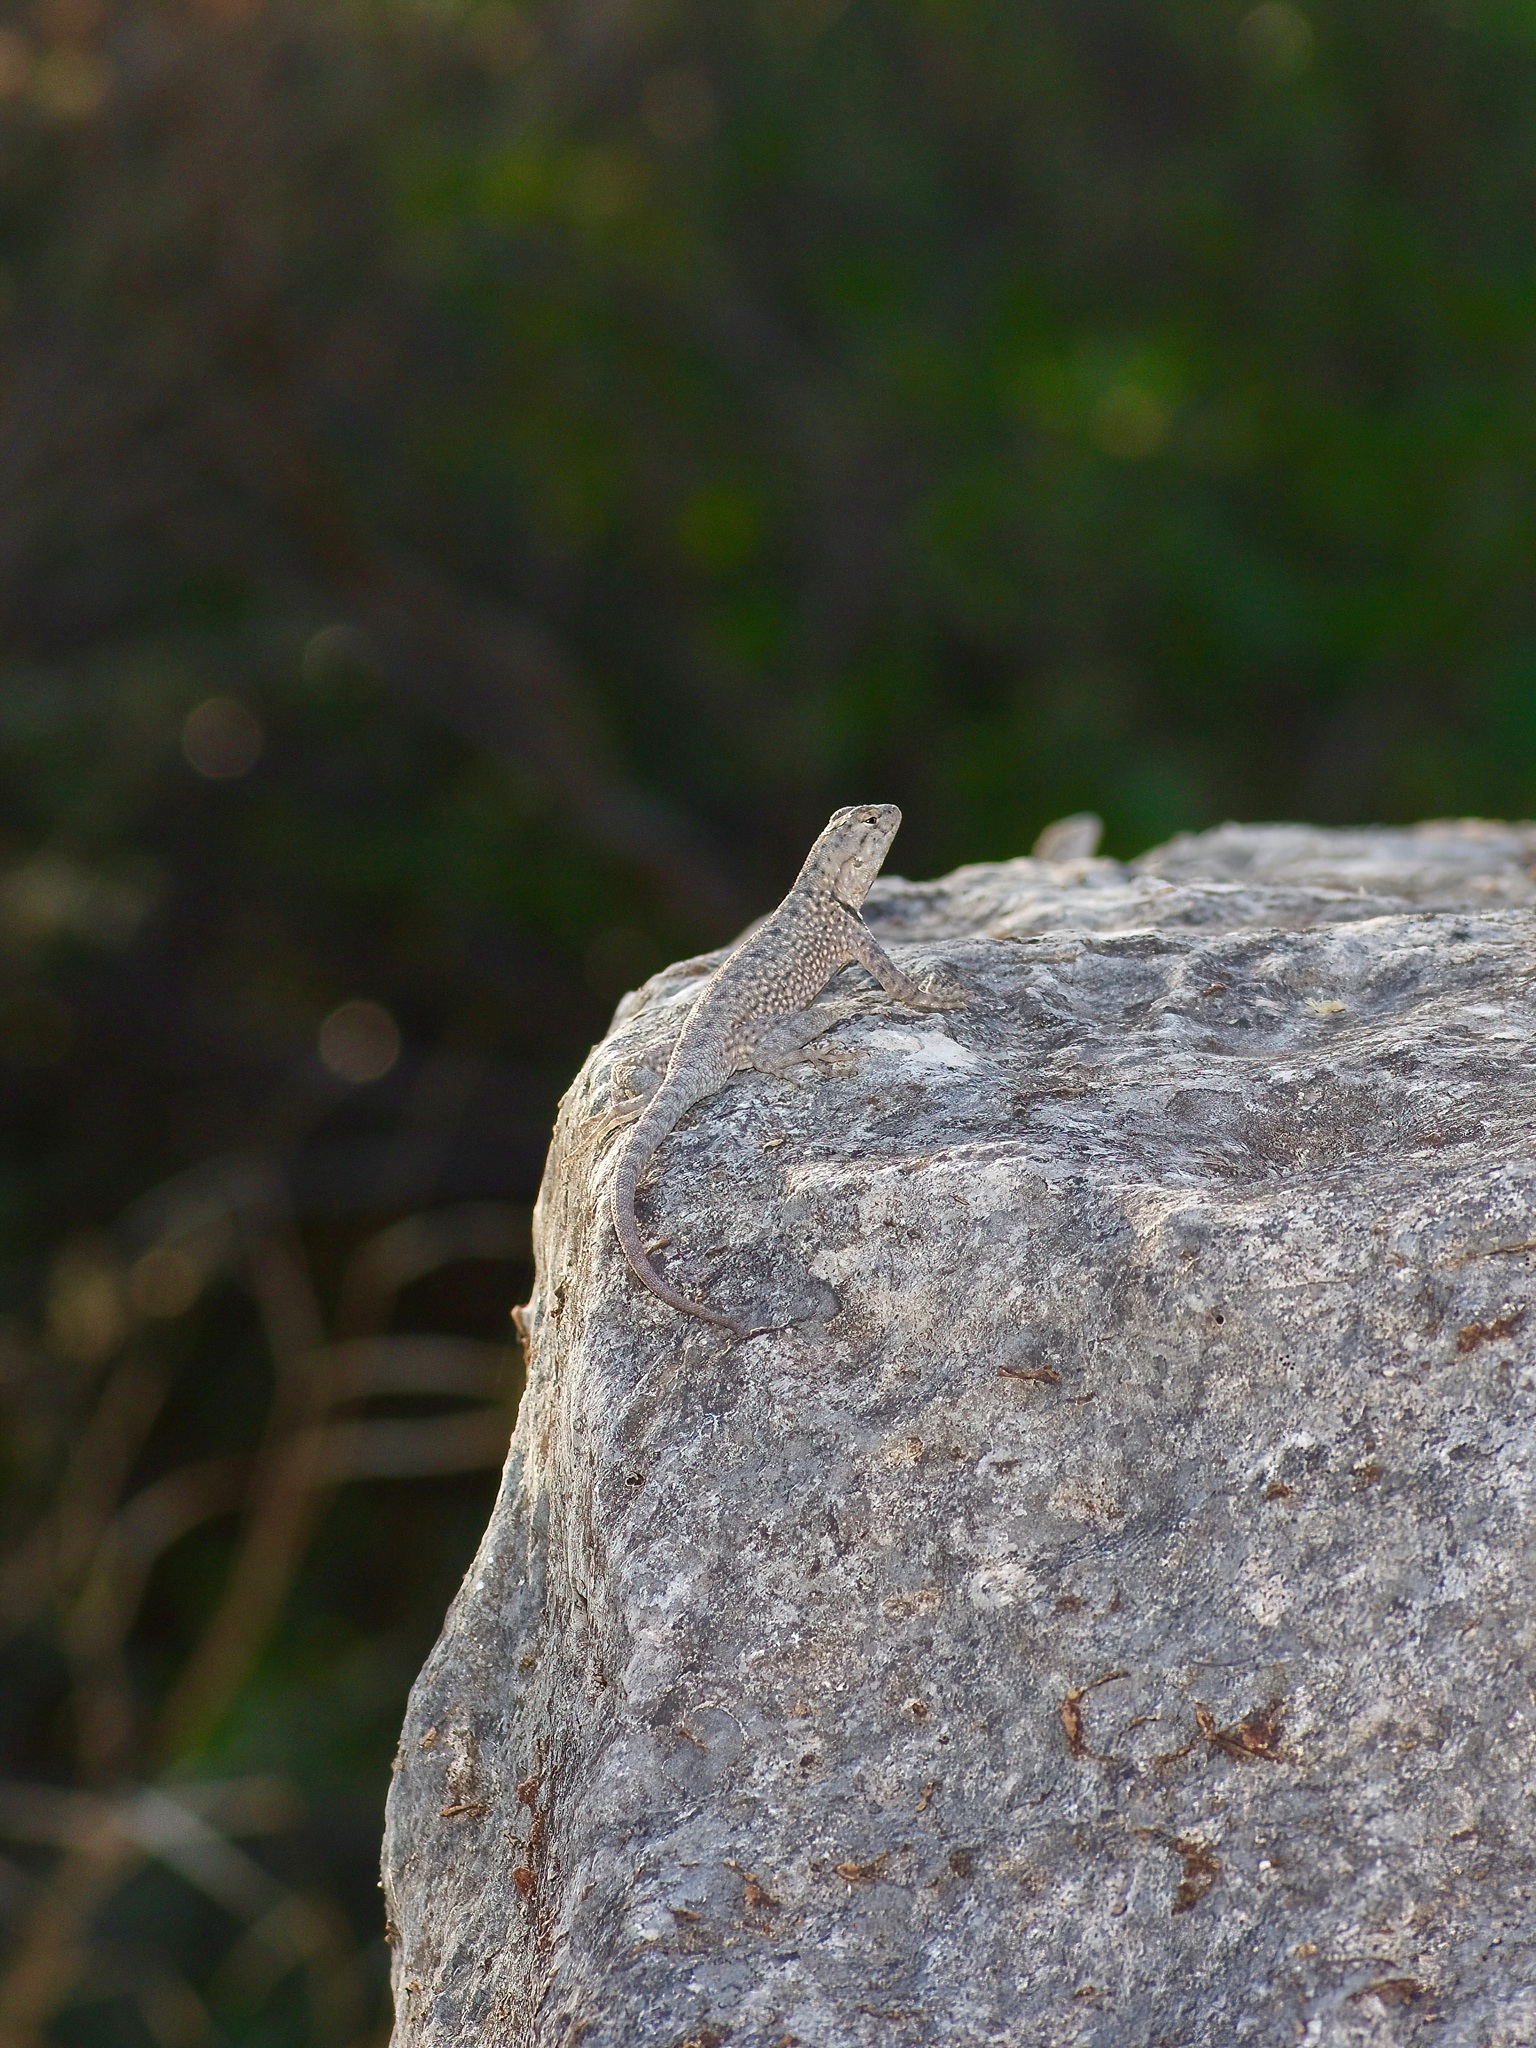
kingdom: Animalia
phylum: Chordata
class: Squamata
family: Phrynosomatidae
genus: Sceloporus
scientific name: Sceloporus merriami
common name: Canyon lizard
